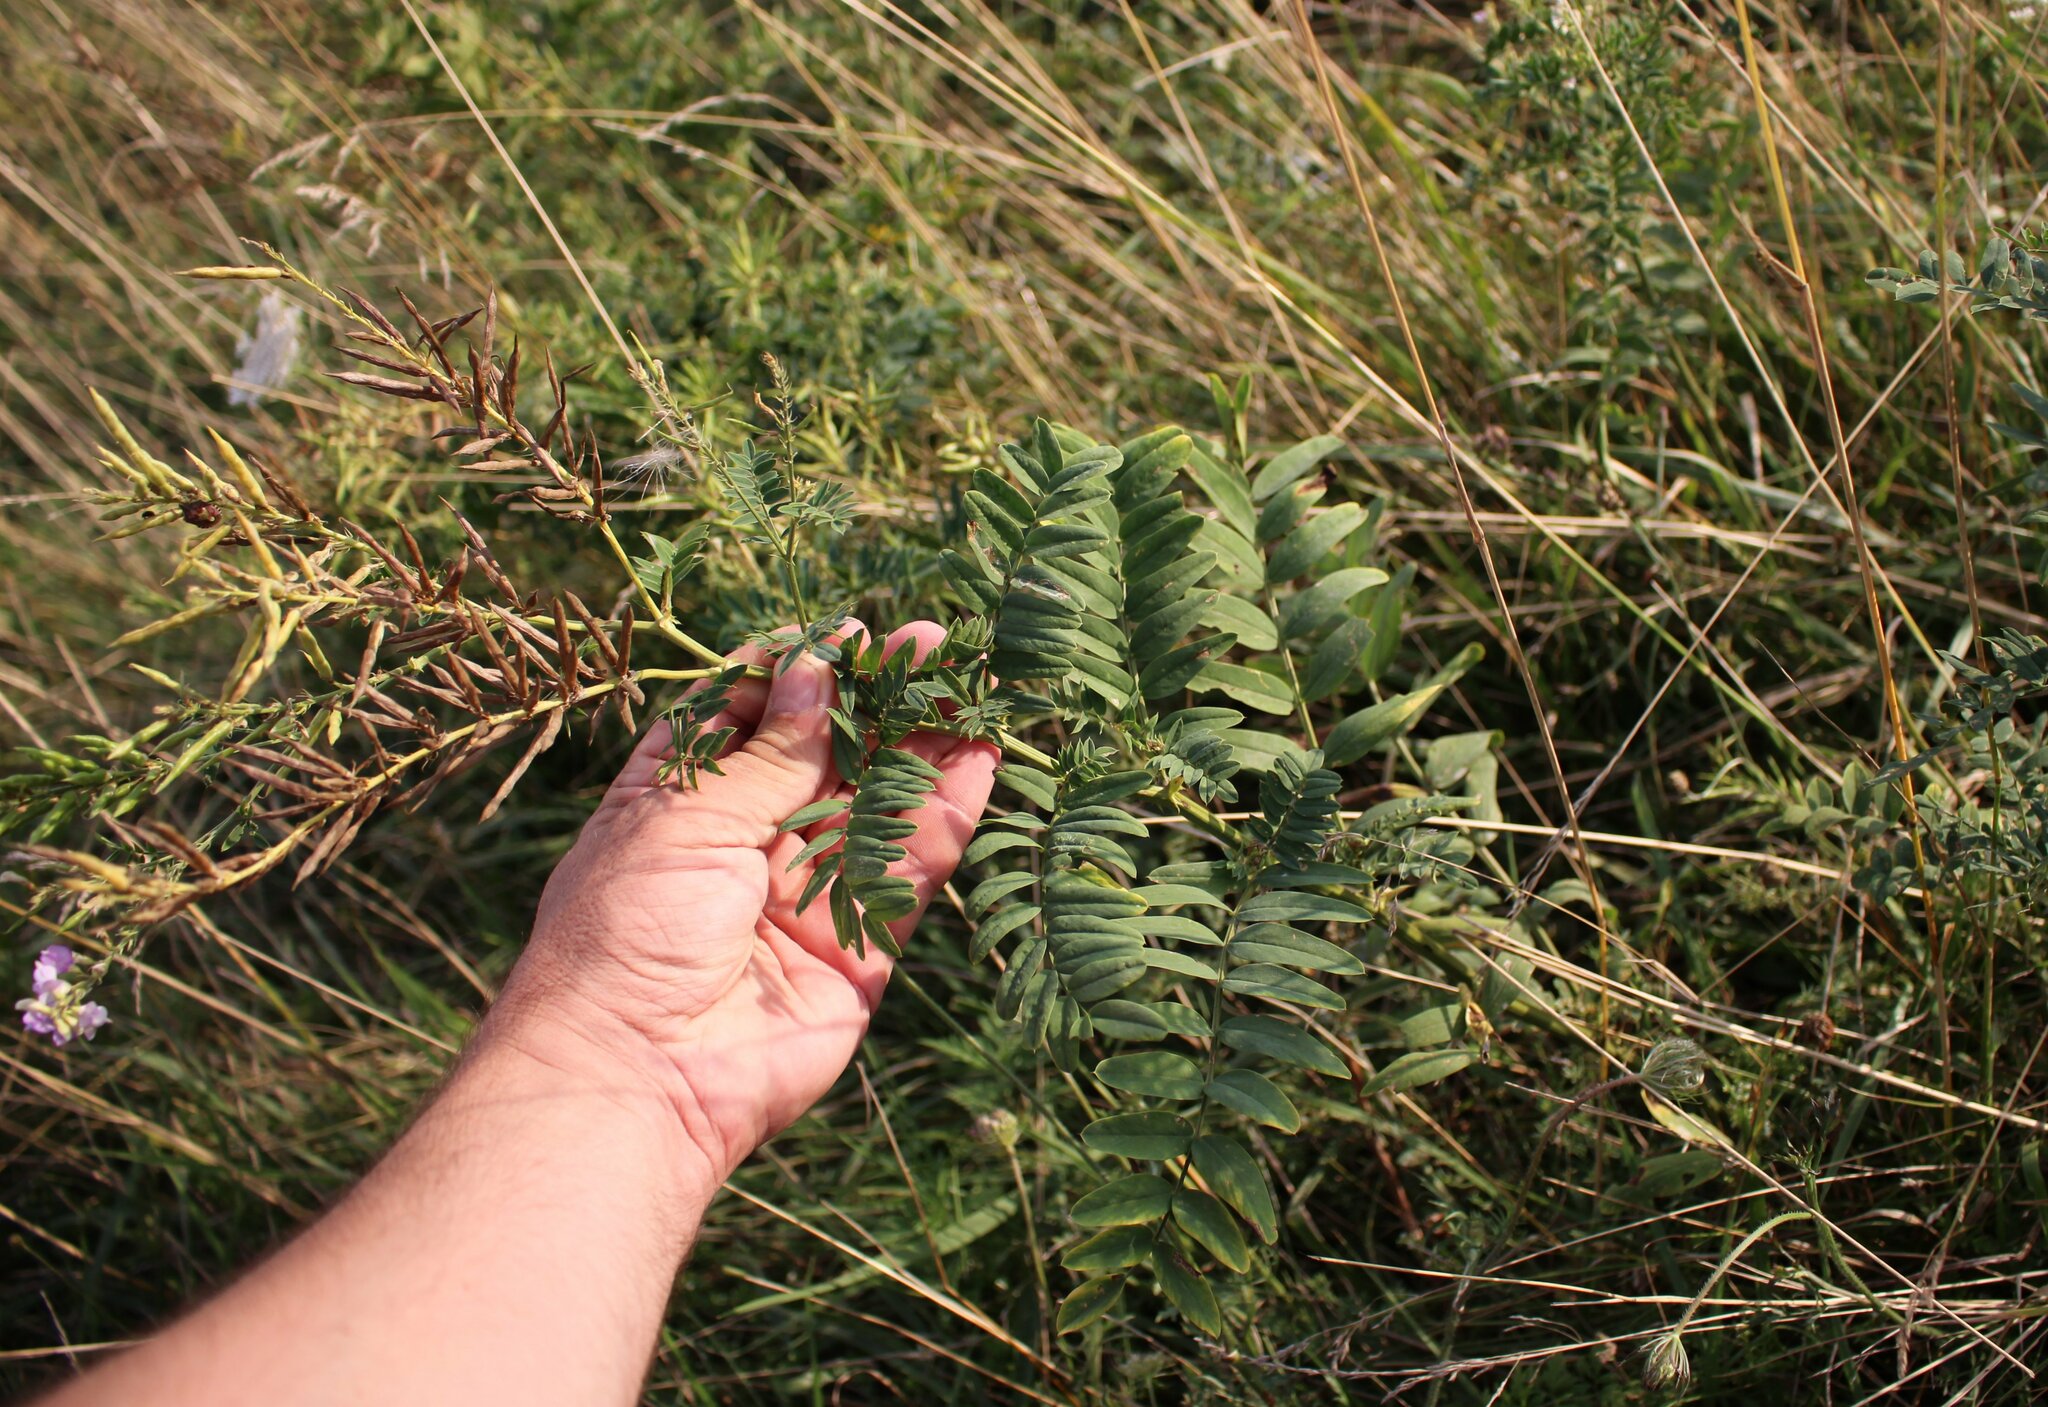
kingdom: Plantae
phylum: Tracheophyta
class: Magnoliopsida
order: Fabales
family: Fabaceae
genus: Galega
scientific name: Galega officinalis
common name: Goat's-rue
